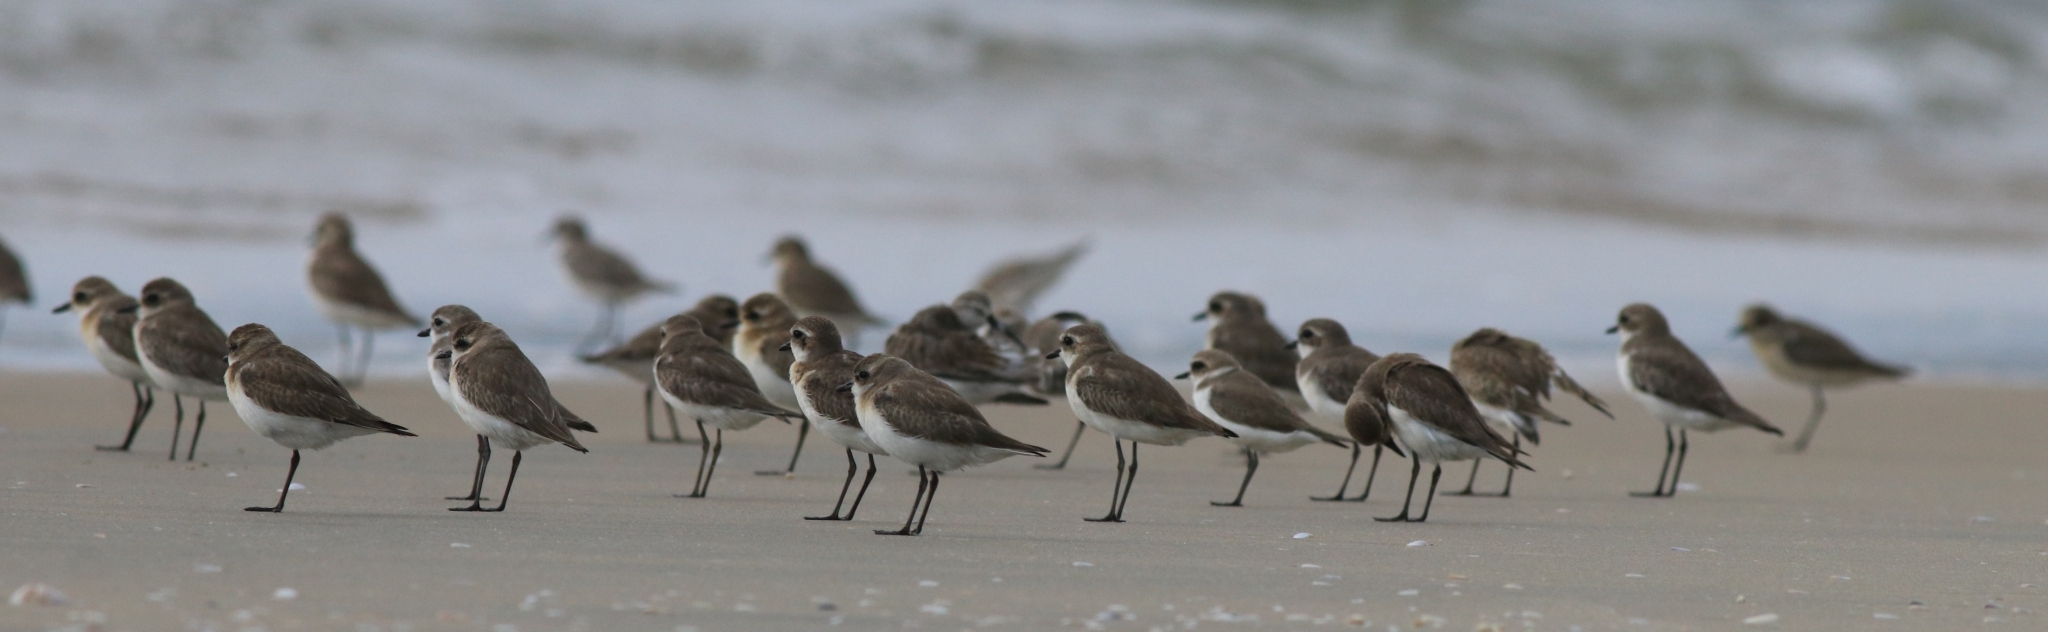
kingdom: Animalia
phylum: Chordata
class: Aves
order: Charadriiformes
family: Charadriidae
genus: Anarhynchus
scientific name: Anarhynchus
